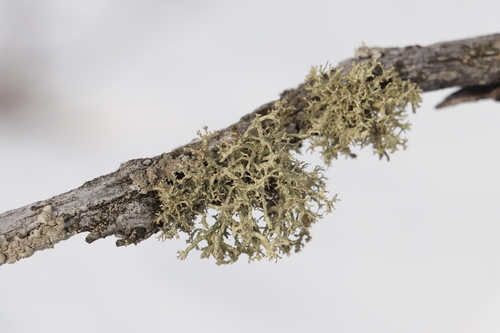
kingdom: Fungi
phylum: Ascomycota
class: Lecanoromycetes
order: Lecanorales
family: Parmeliaceae
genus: Evernia
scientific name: Evernia mesomorpha
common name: Boreal oak moss lichen
